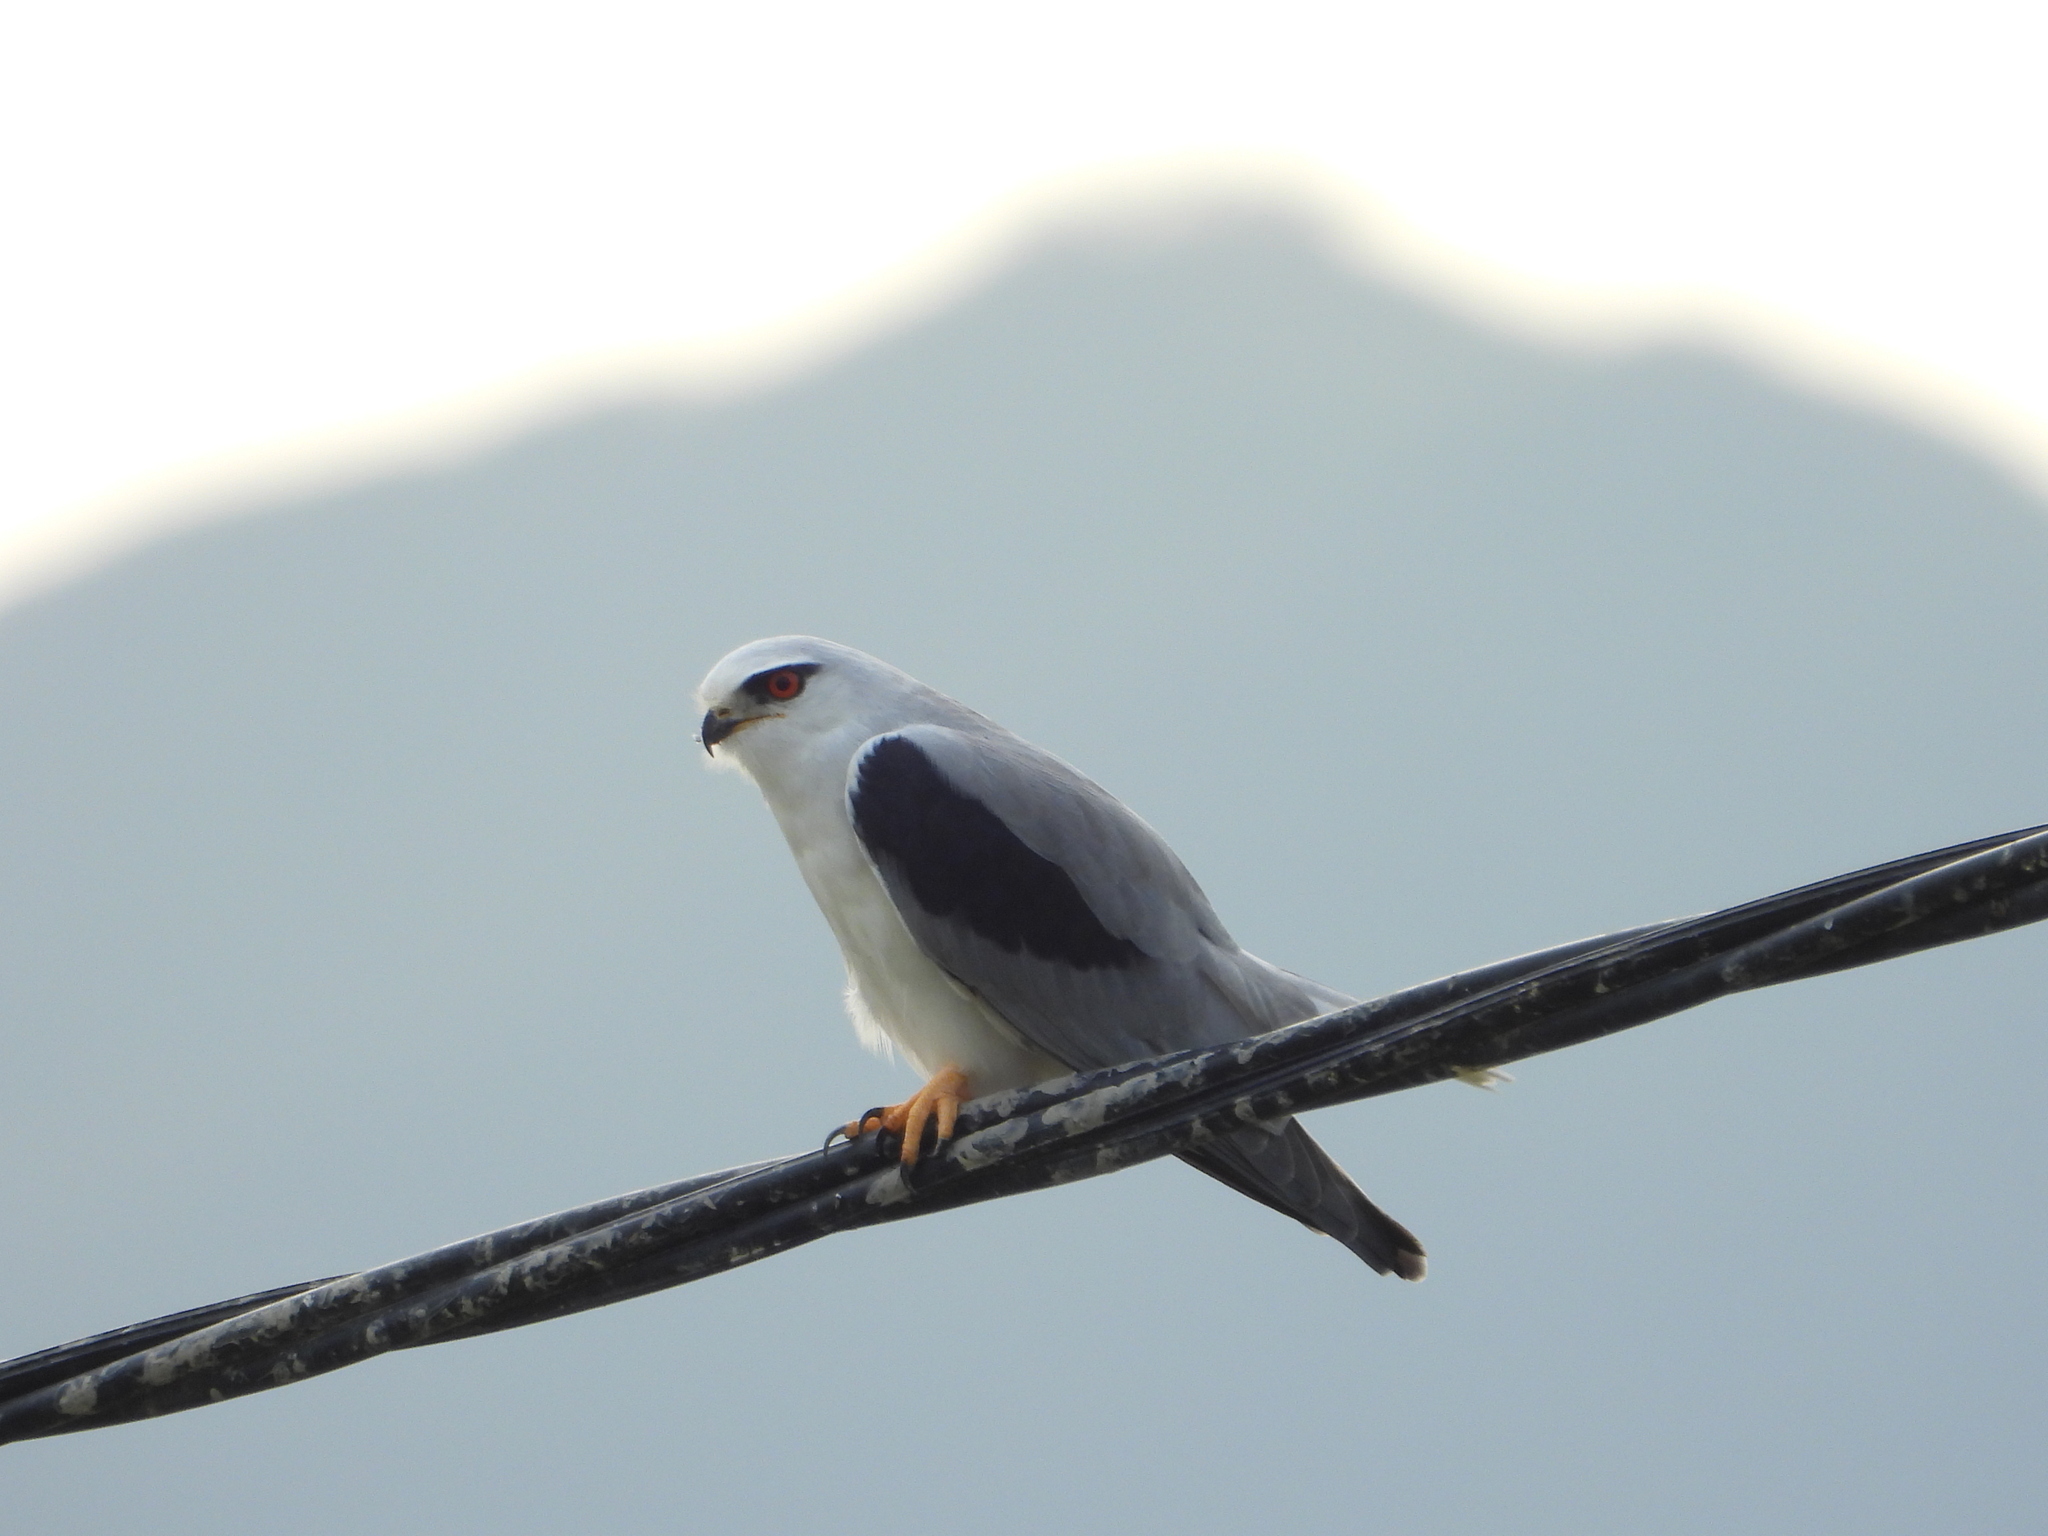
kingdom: Animalia
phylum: Chordata
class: Aves
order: Accipitriformes
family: Accipitridae
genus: Elanus
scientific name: Elanus caeruleus
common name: Black-winged kite
